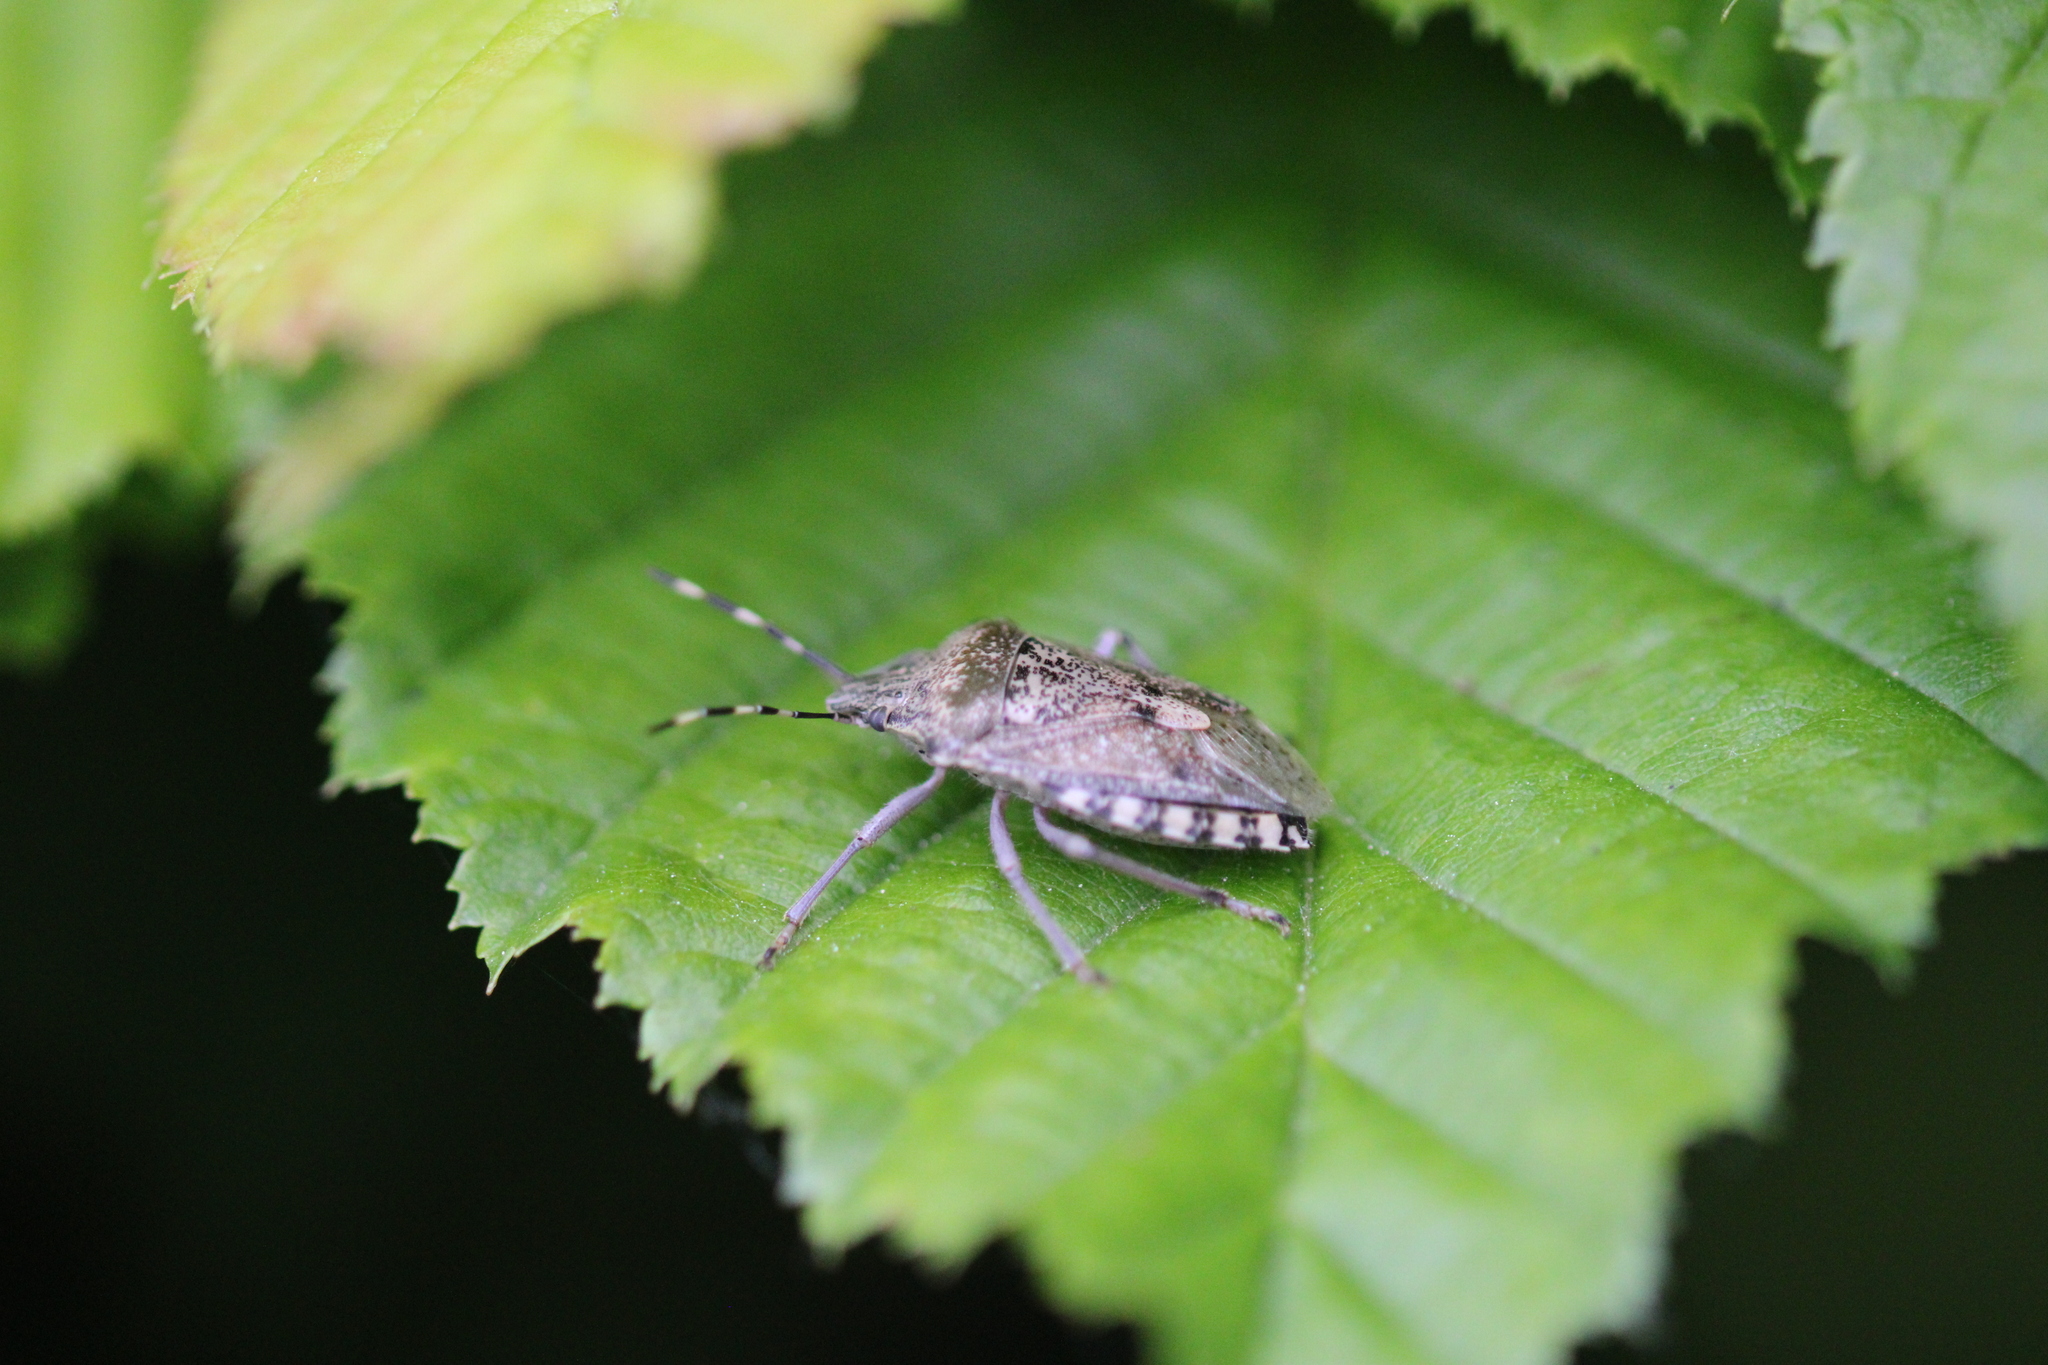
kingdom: Animalia
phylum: Arthropoda
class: Insecta
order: Hemiptera
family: Pentatomidae
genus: Rhaphigaster
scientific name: Rhaphigaster nebulosa
